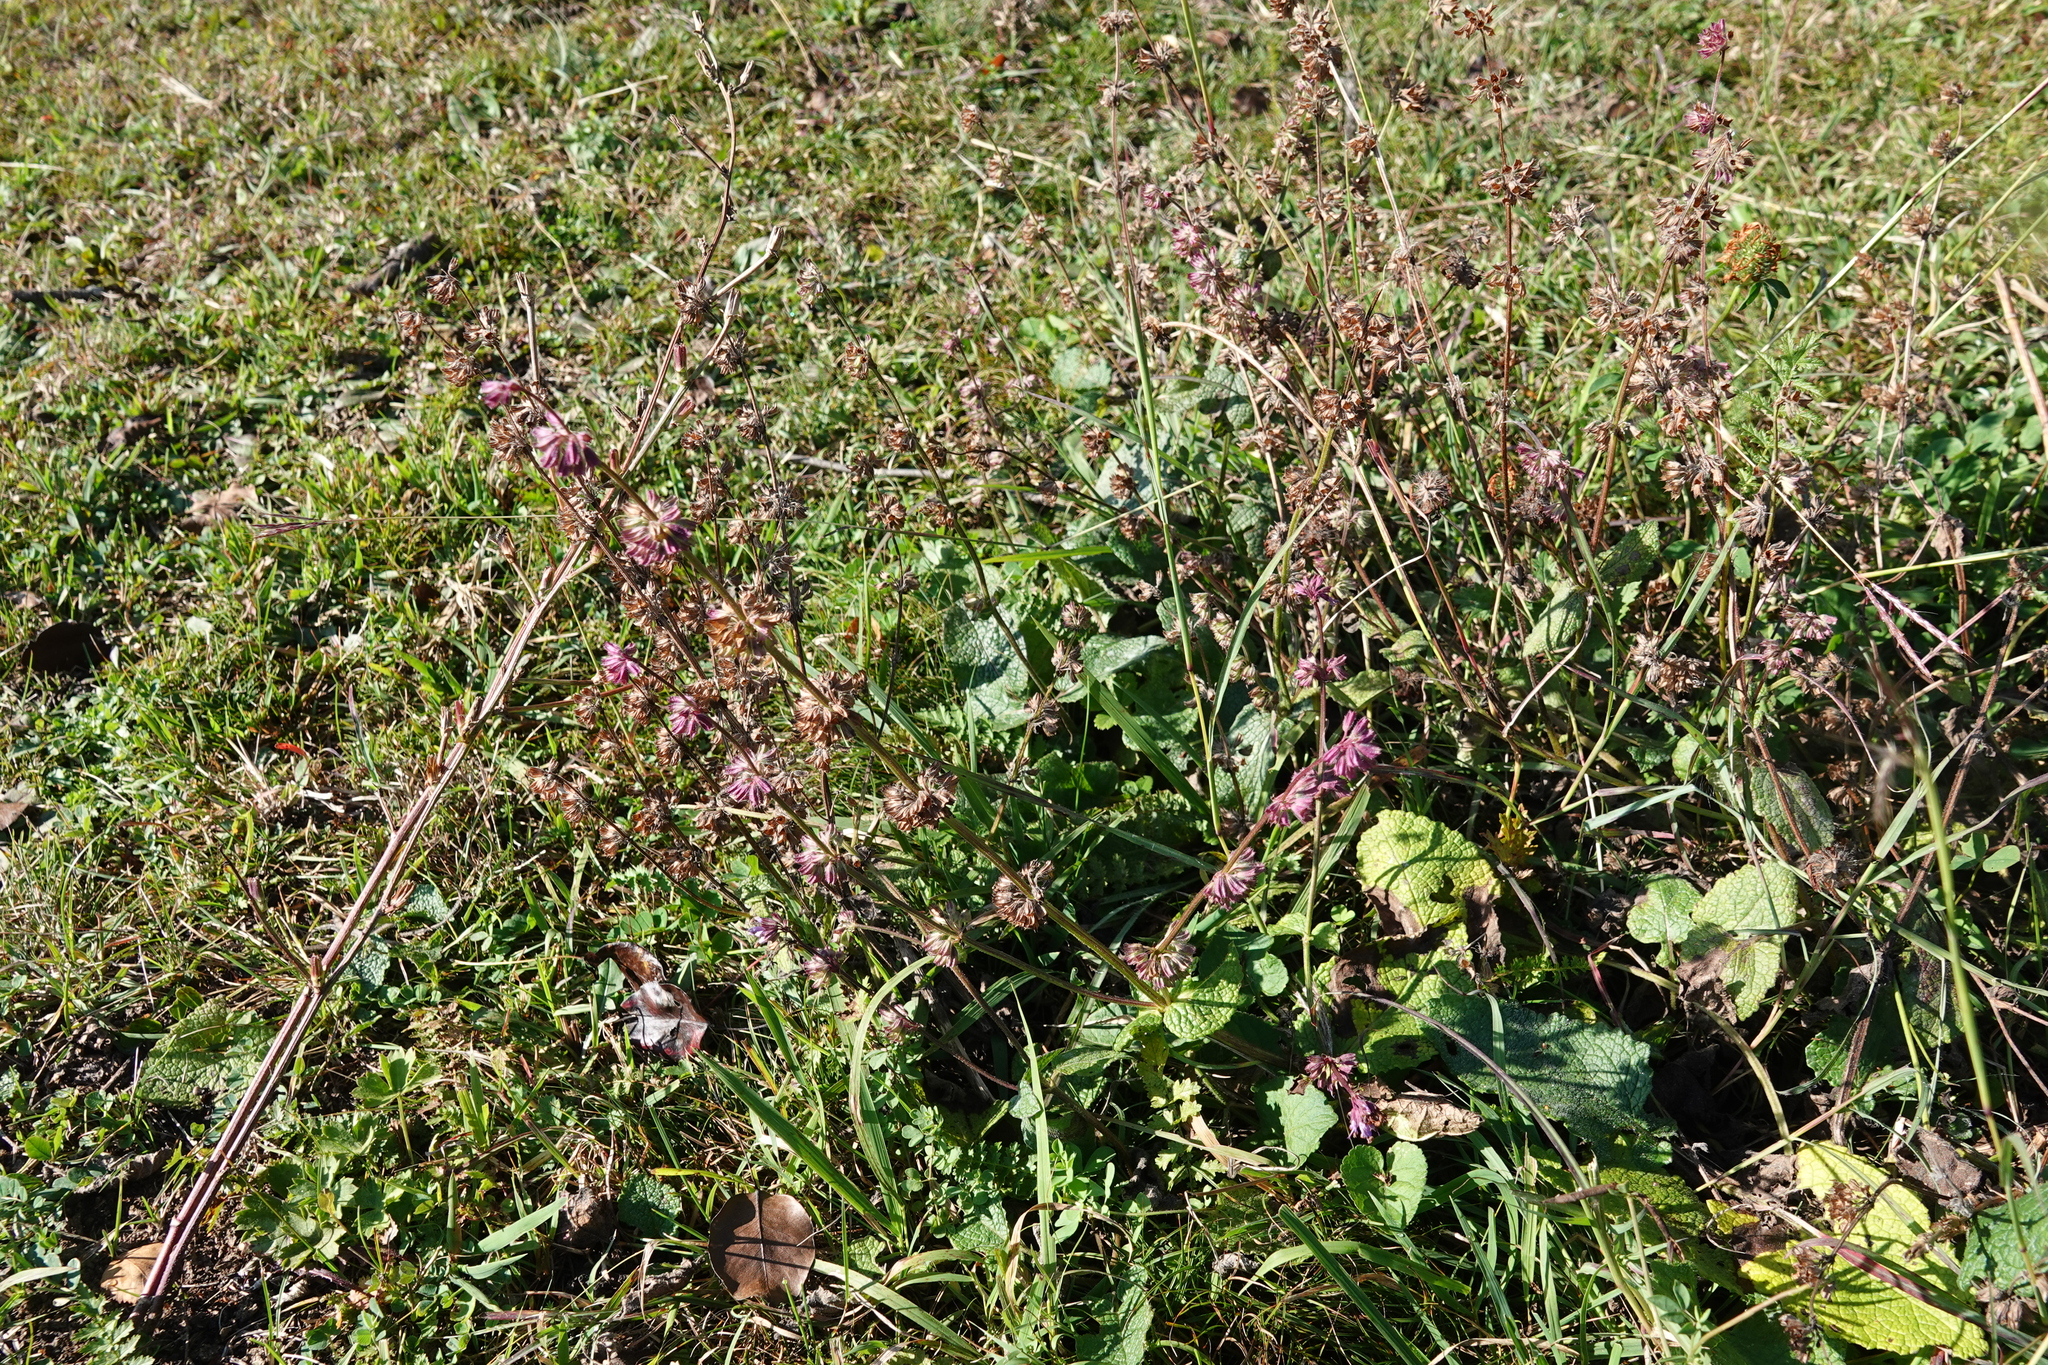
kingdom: Plantae
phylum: Tracheophyta
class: Magnoliopsida
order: Lamiales
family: Lamiaceae
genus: Salvia
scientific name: Salvia verticillata
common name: Whorled clary
